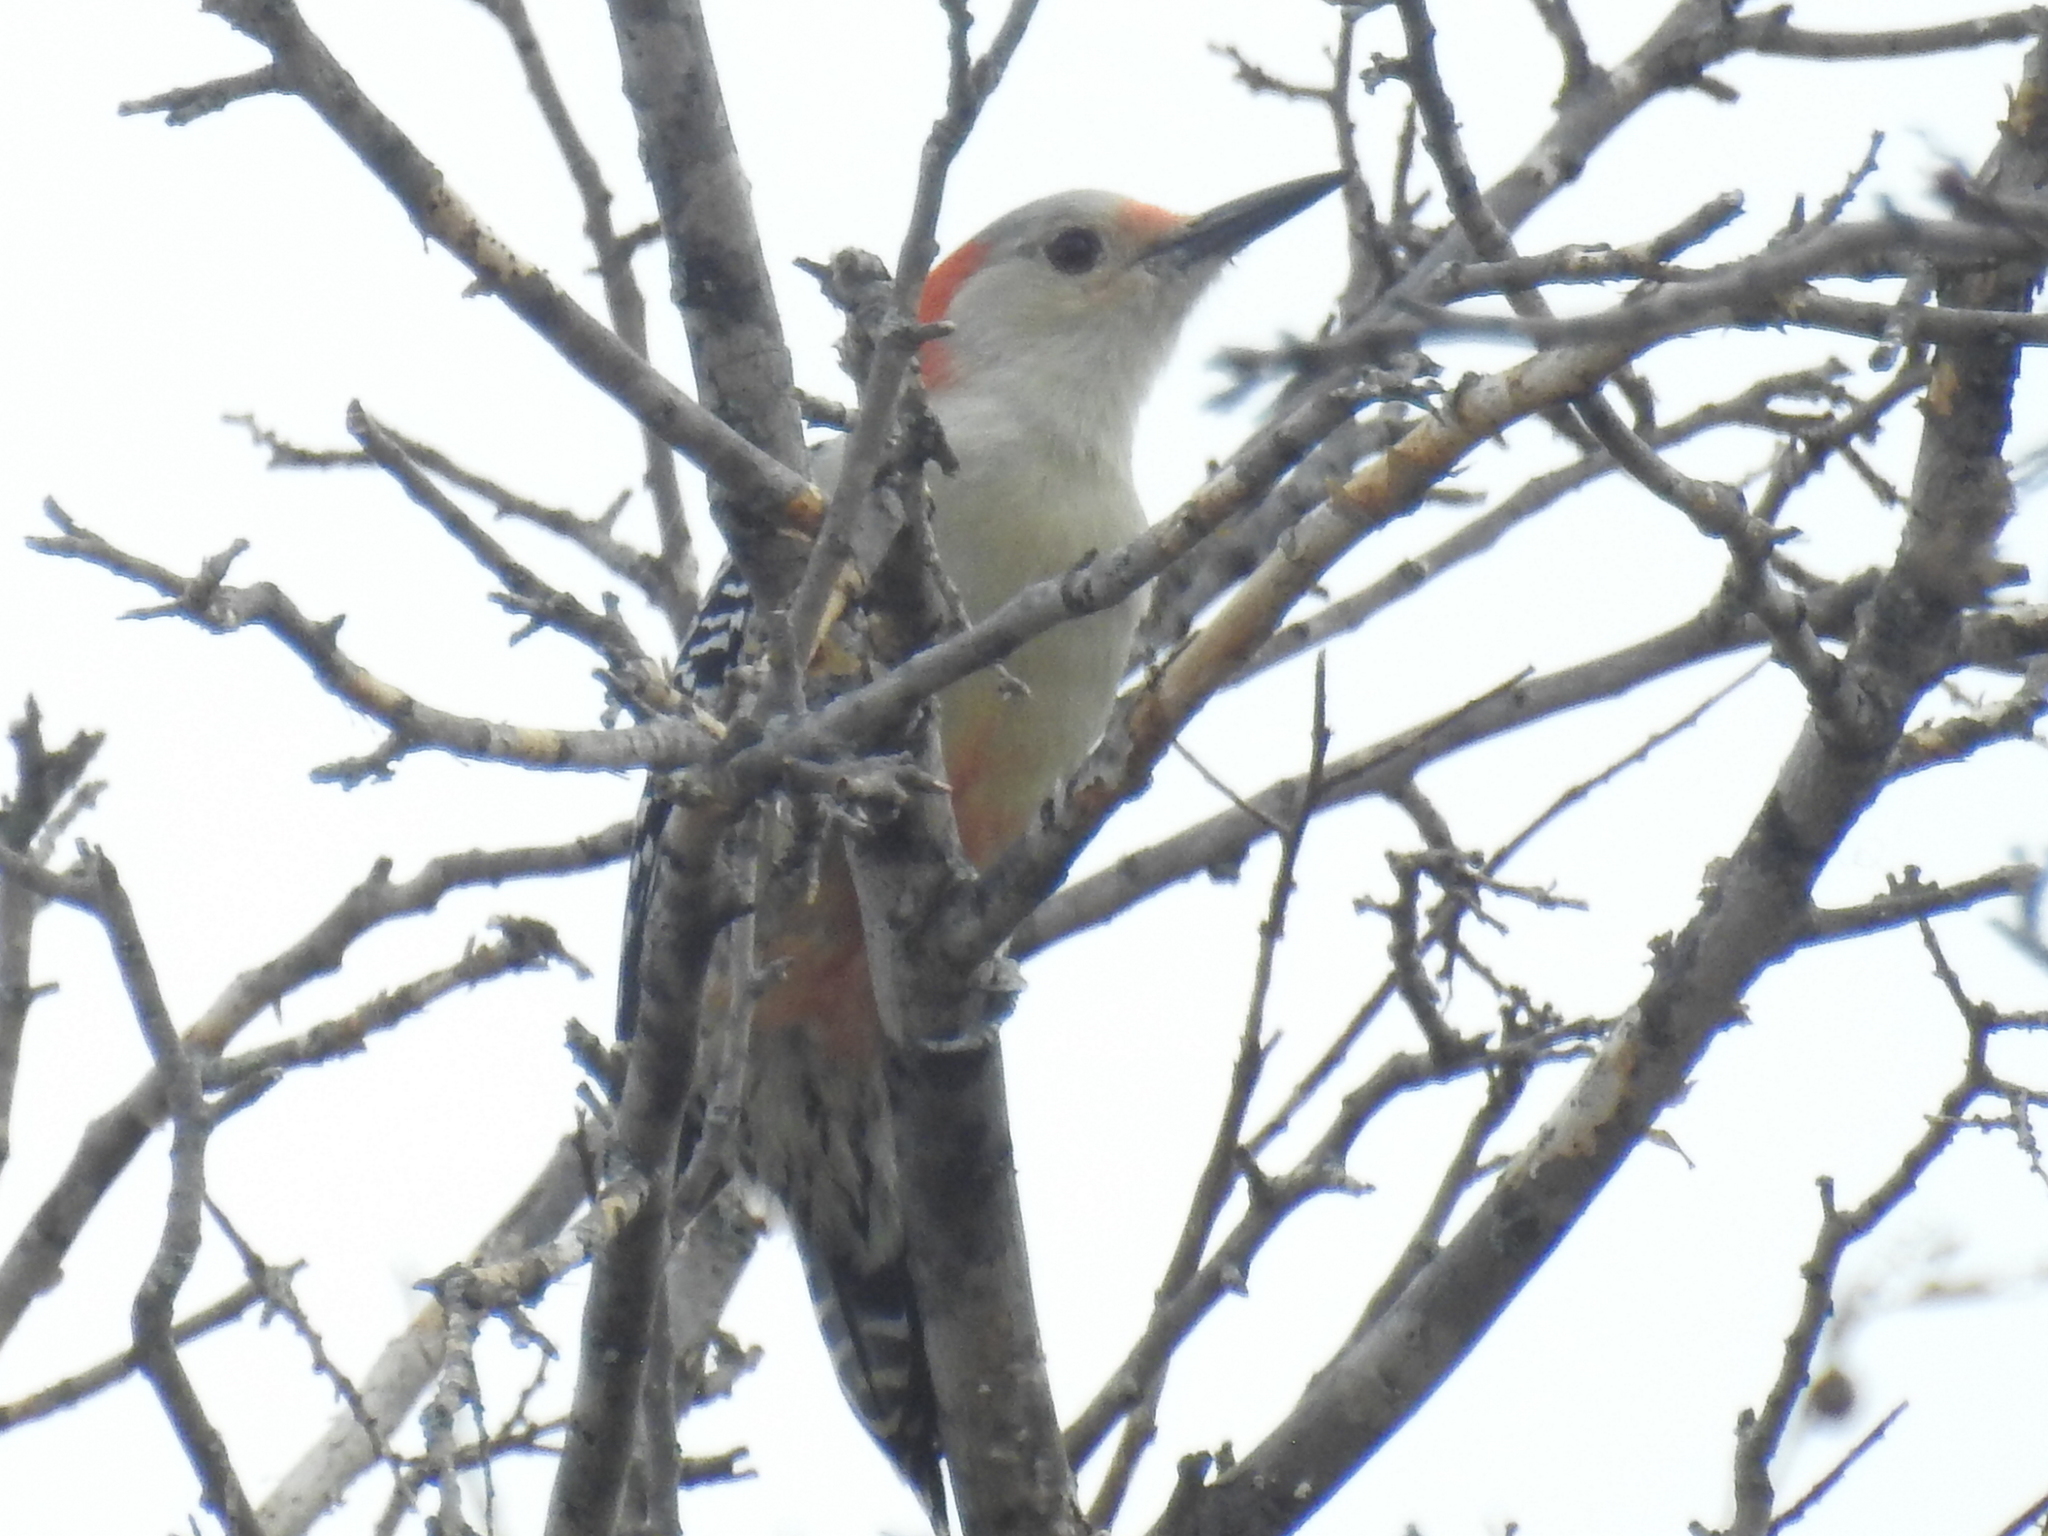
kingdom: Animalia
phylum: Chordata
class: Aves
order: Piciformes
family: Picidae
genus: Melanerpes
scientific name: Melanerpes carolinus
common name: Red-bellied woodpecker
